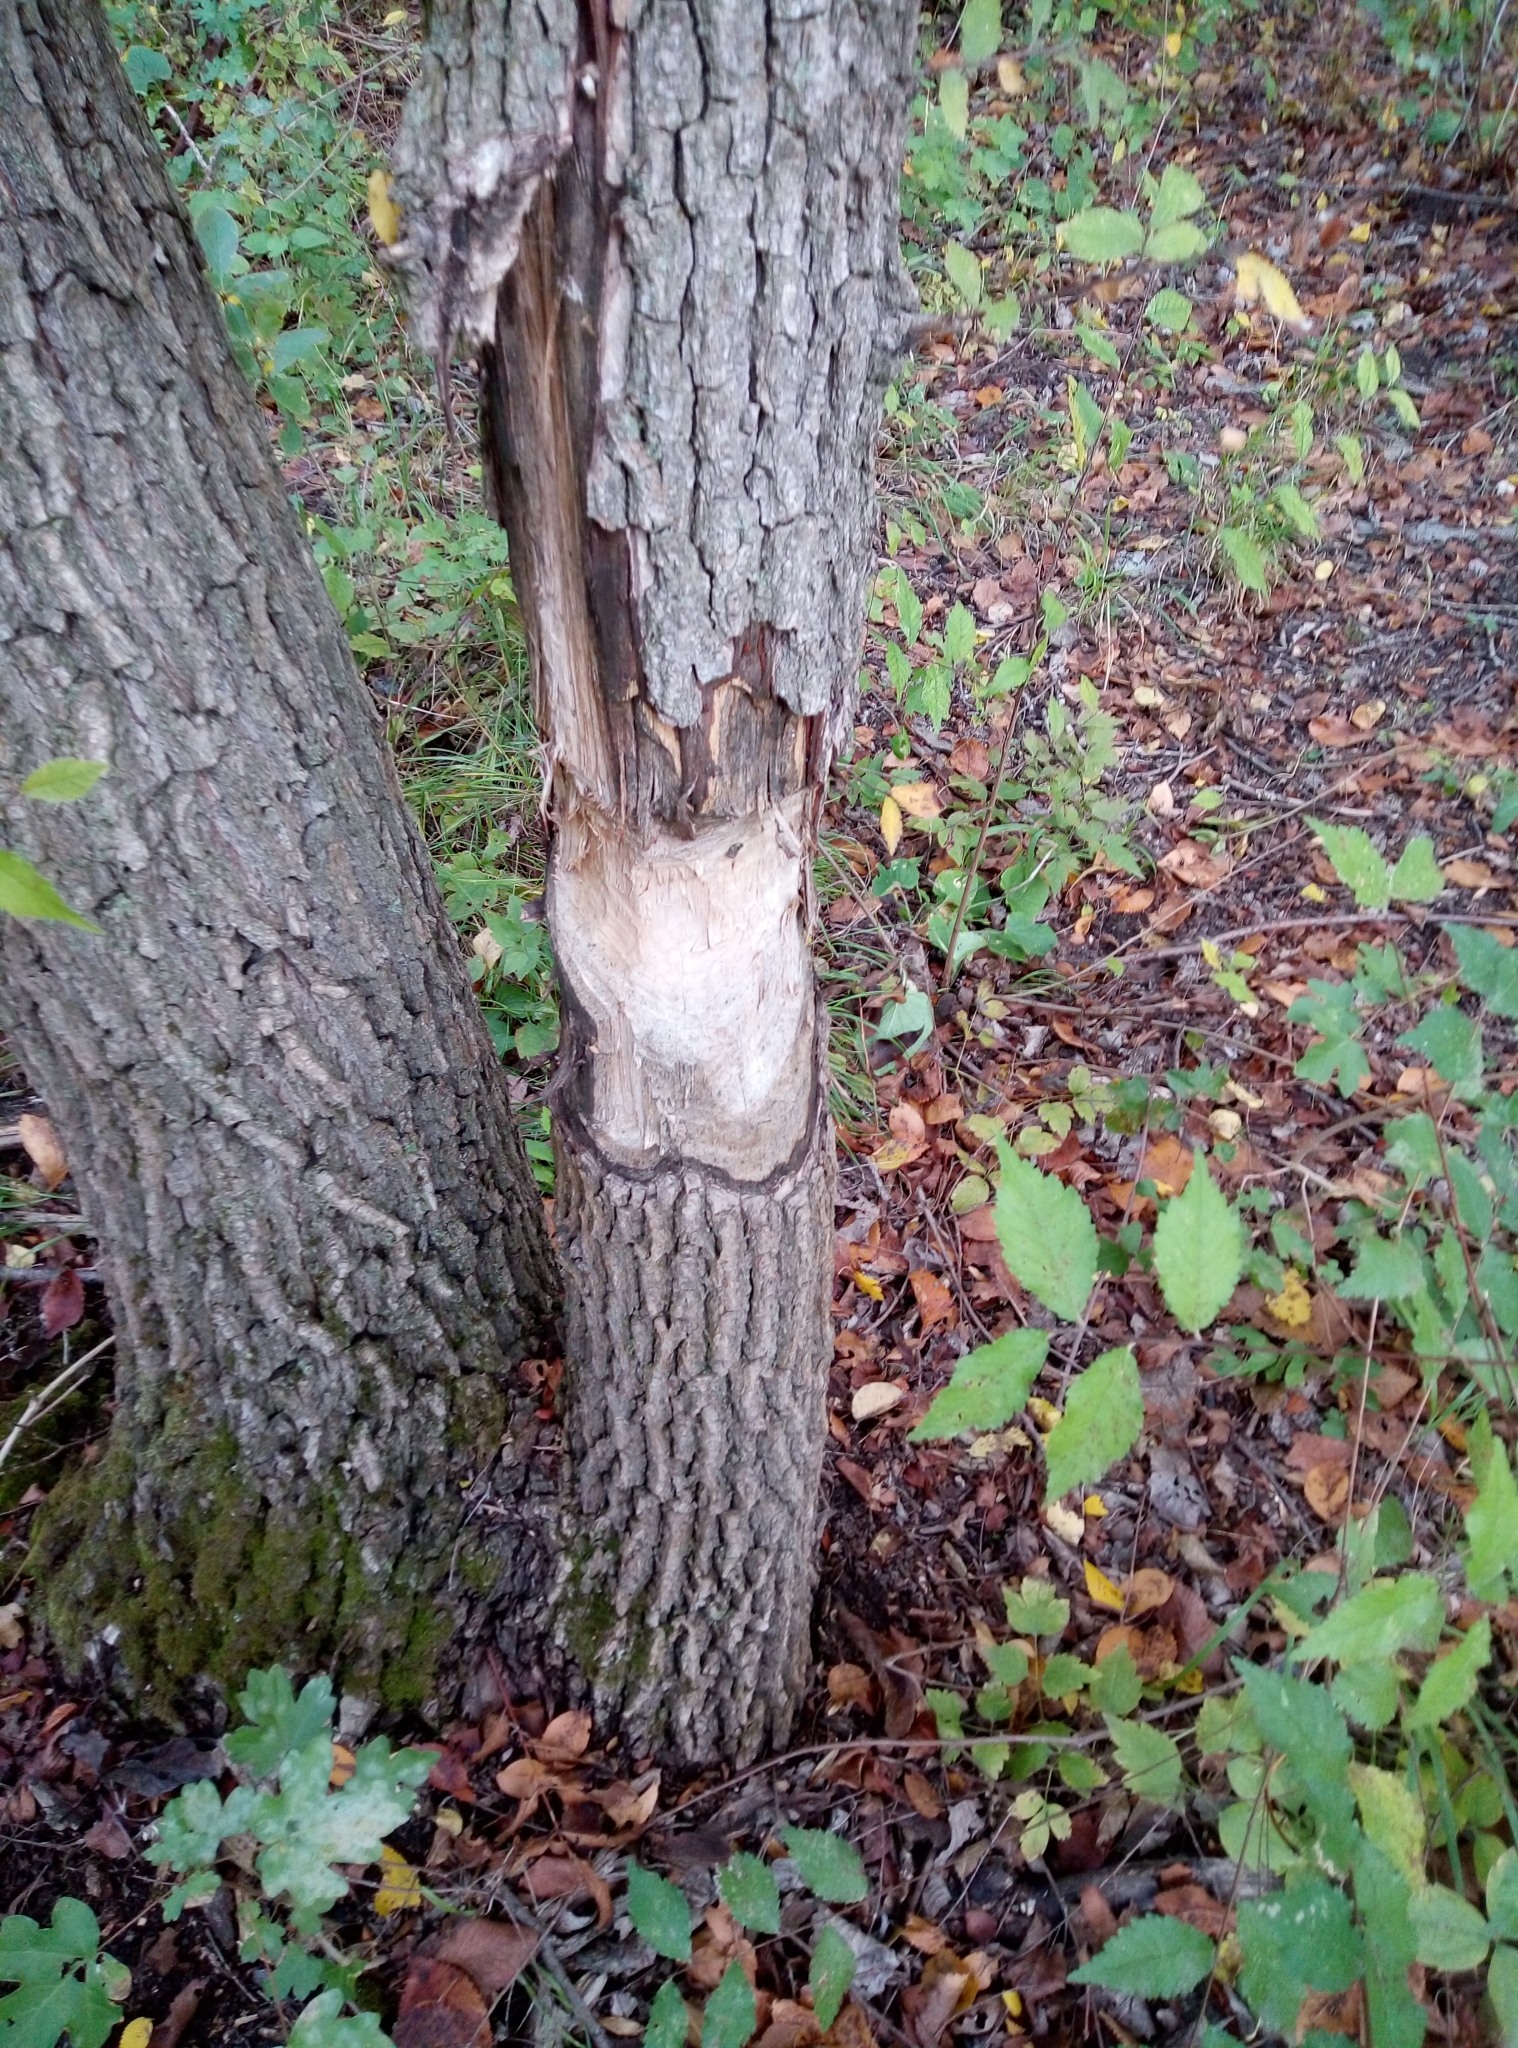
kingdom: Animalia
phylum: Chordata
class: Mammalia
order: Rodentia
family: Castoridae
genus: Castor
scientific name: Castor fiber
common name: Eurasian beaver
